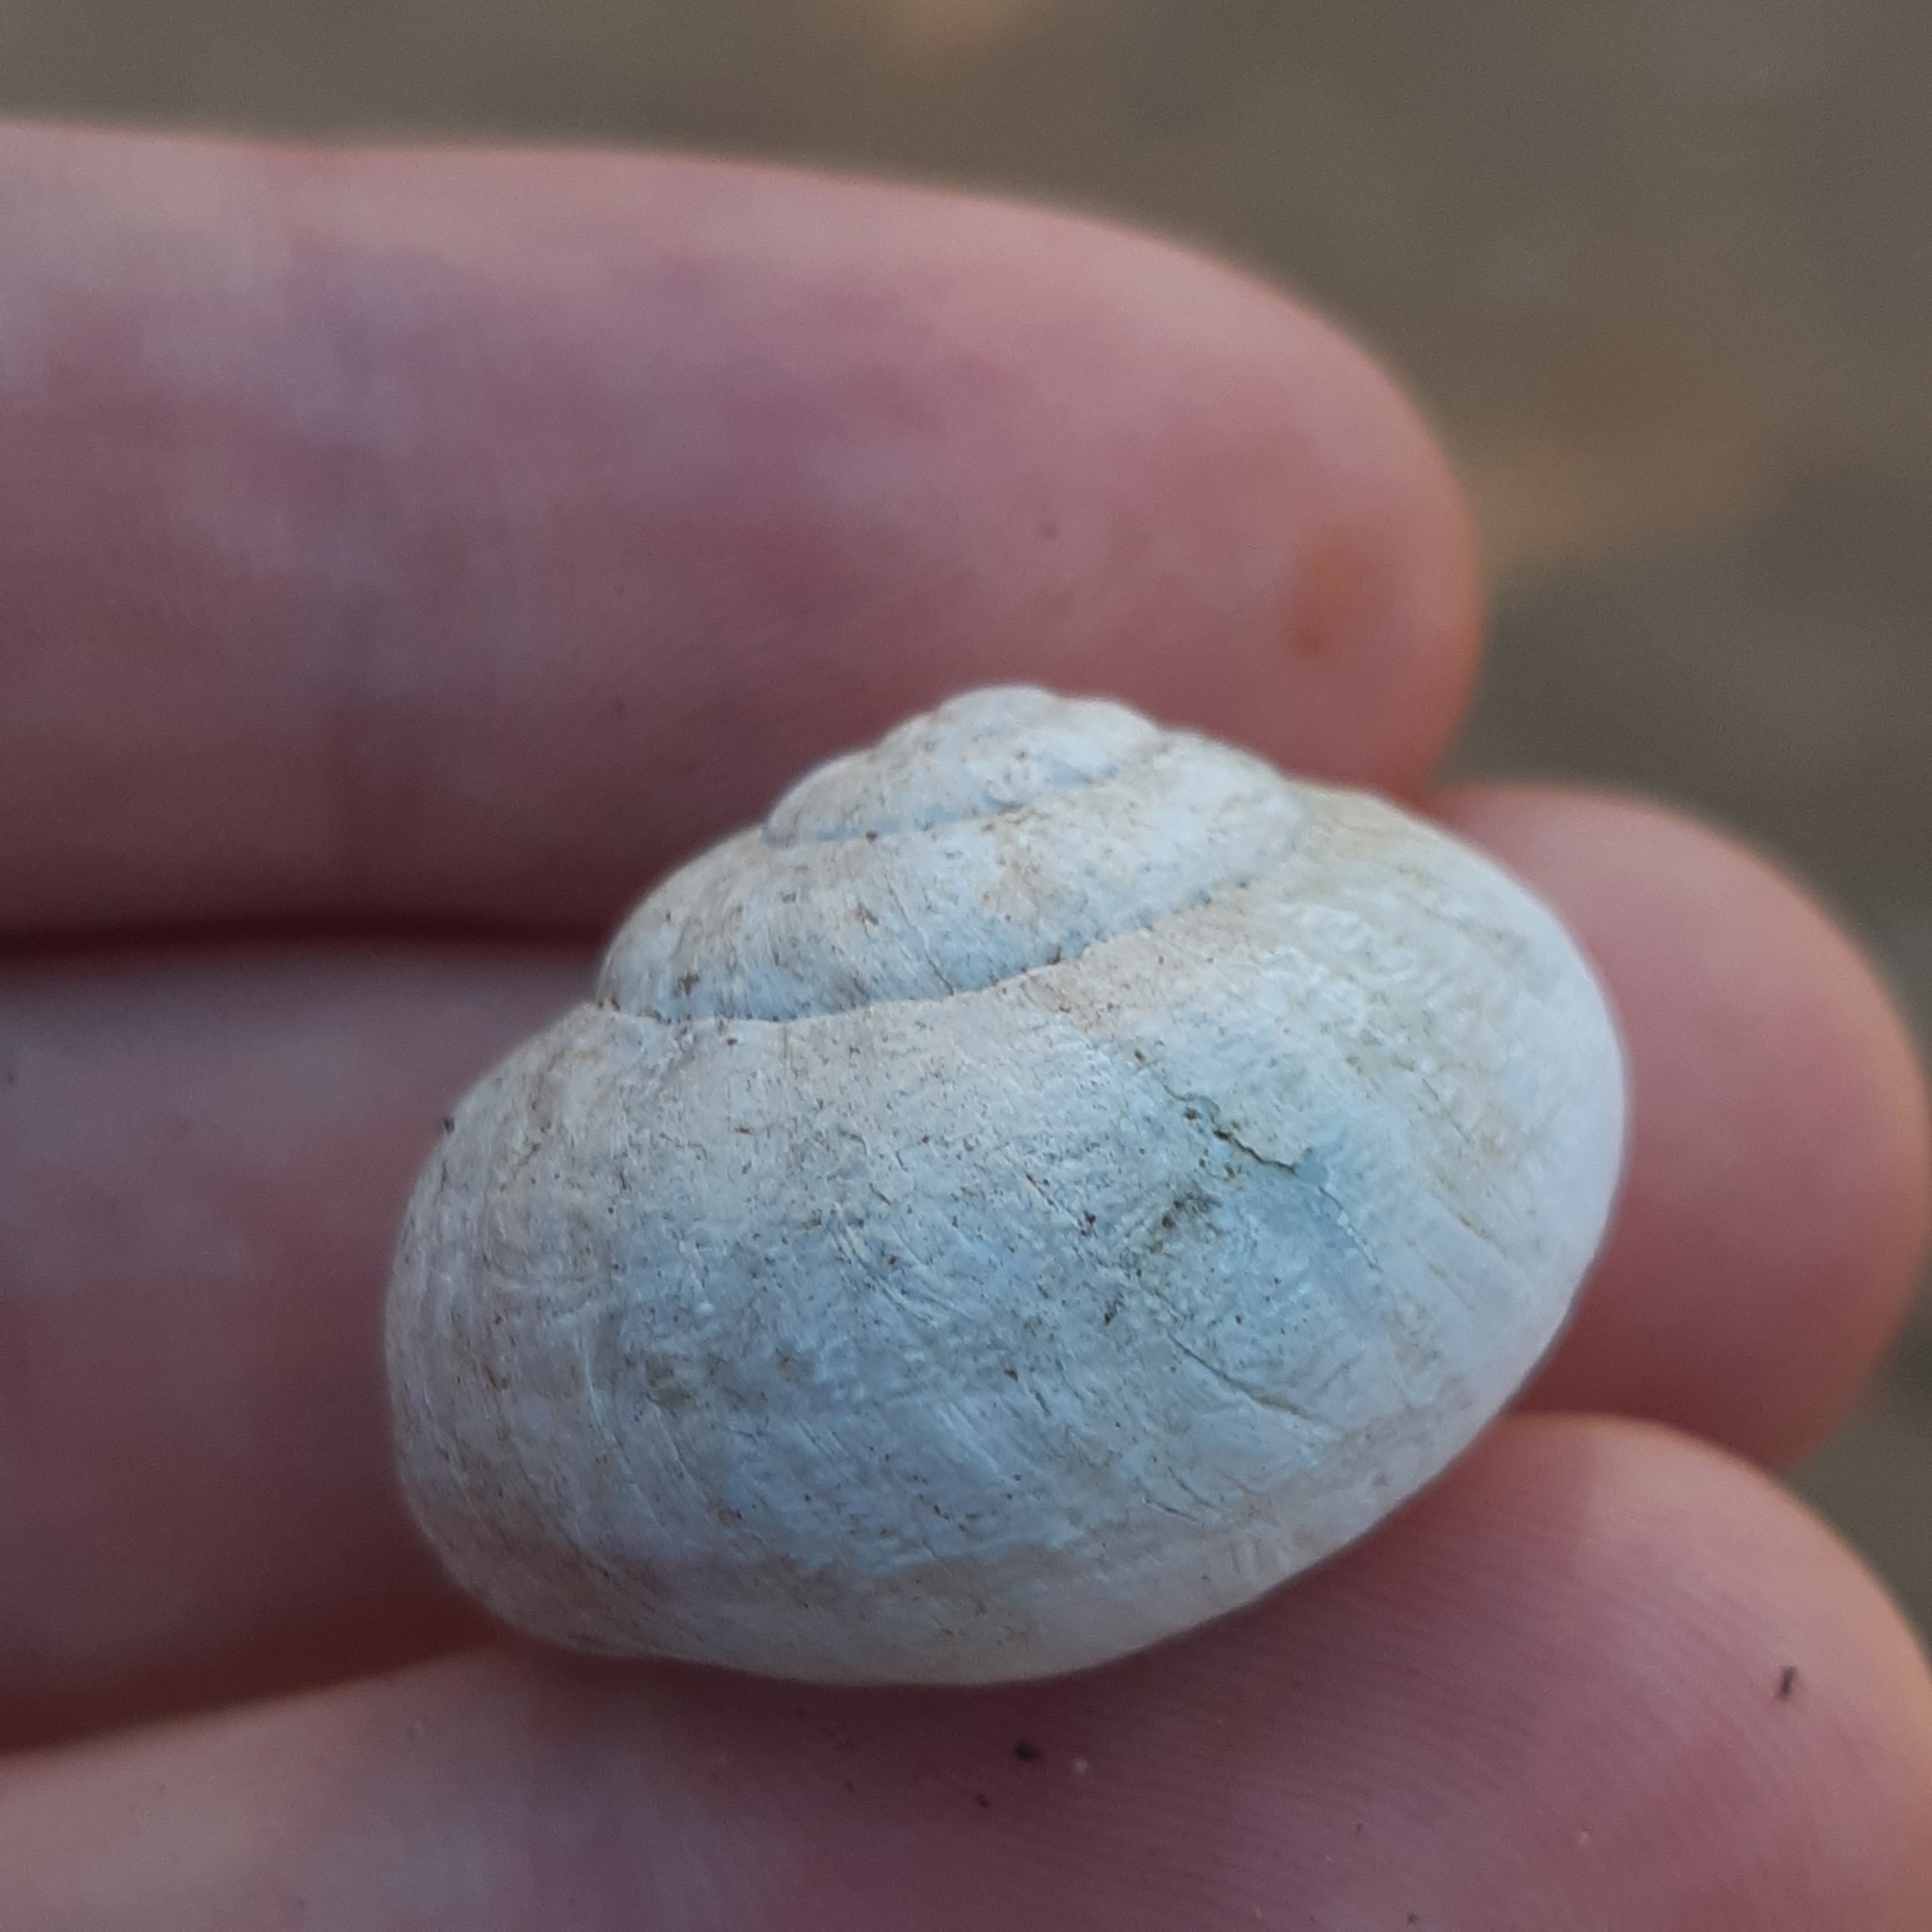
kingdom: Animalia
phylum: Mollusca
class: Gastropoda
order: Stylommatophora
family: Helicidae
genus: Eobania
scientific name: Eobania vermiculata
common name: Chocolateband snail
